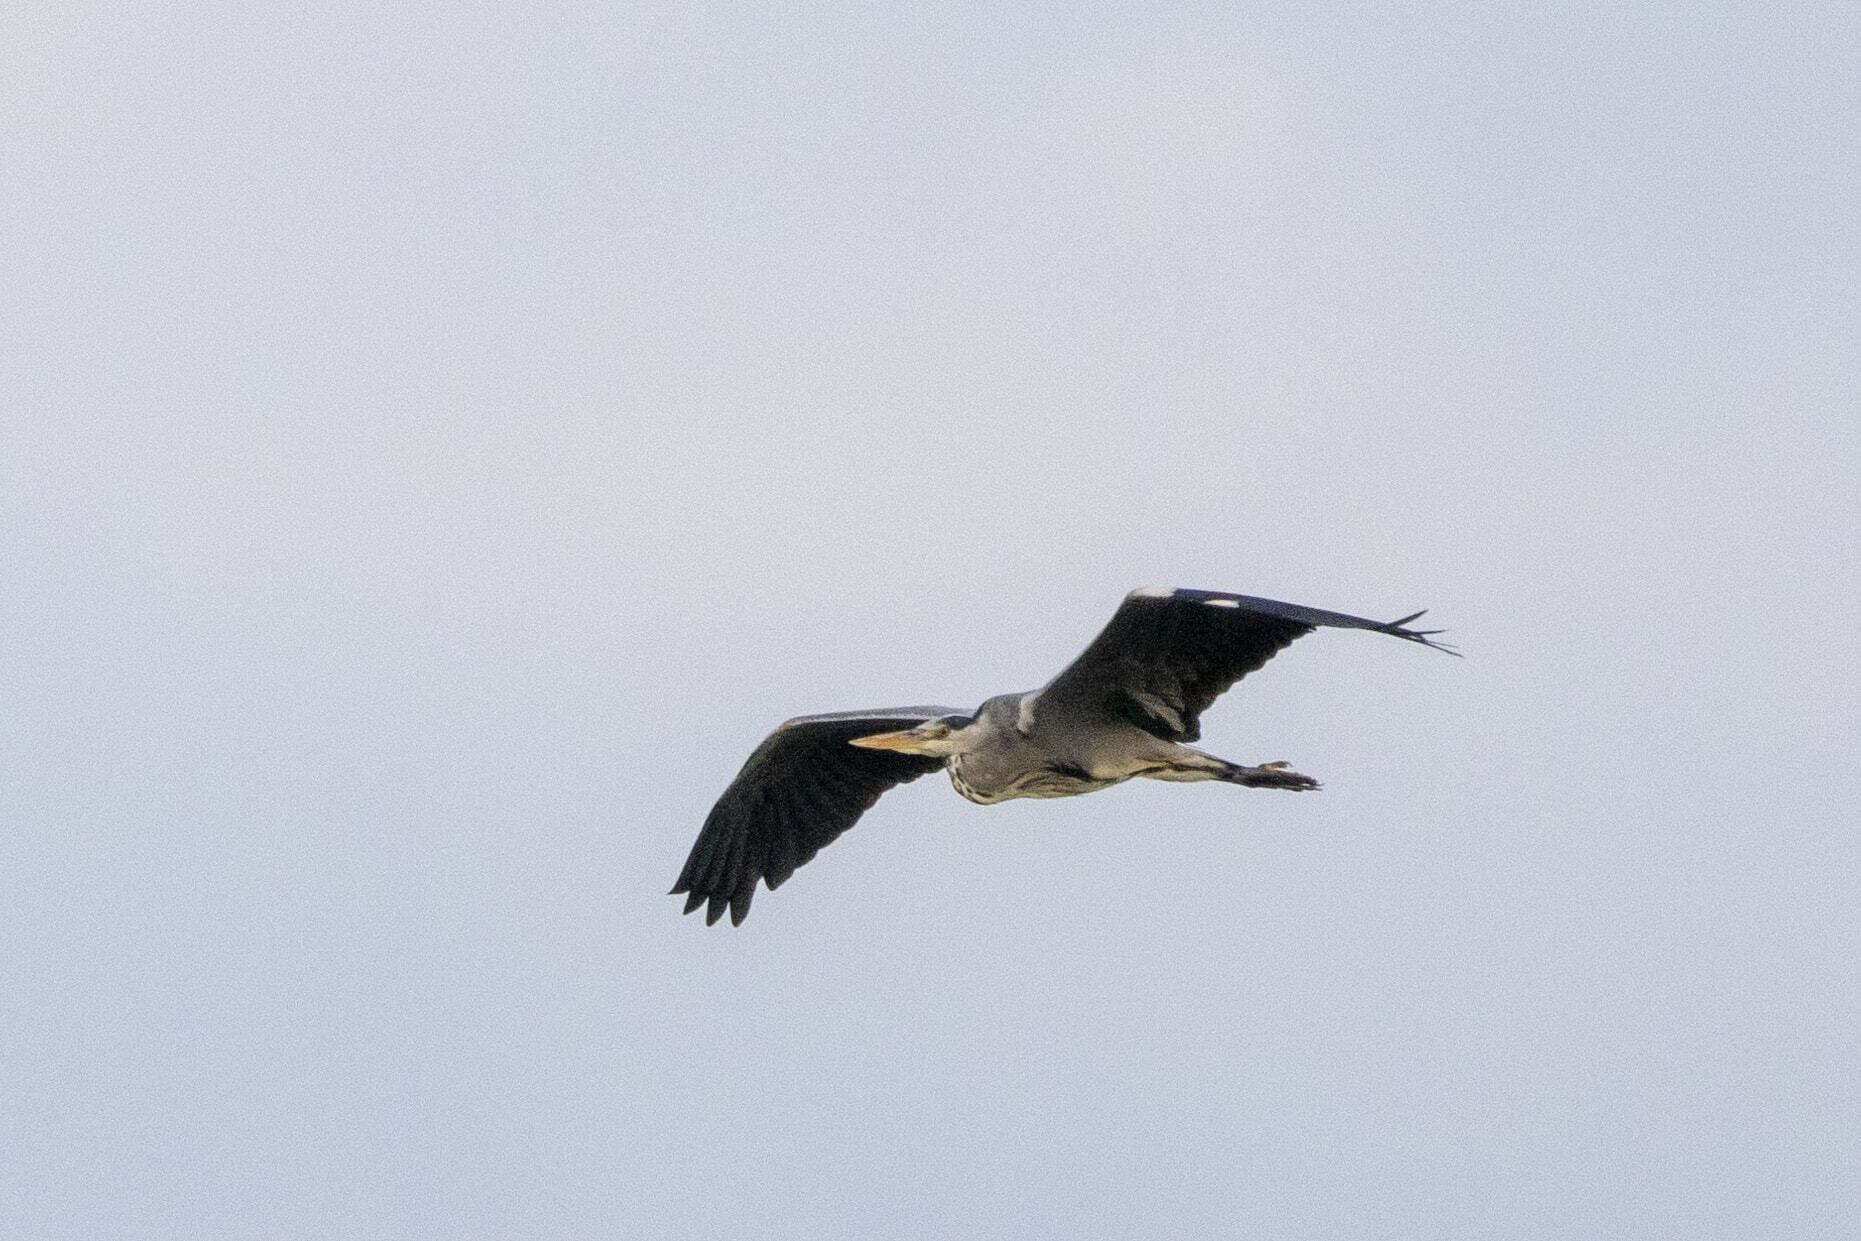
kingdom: Animalia
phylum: Chordata
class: Aves
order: Pelecaniformes
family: Ardeidae
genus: Ardea
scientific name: Ardea cinerea
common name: Grey heron
